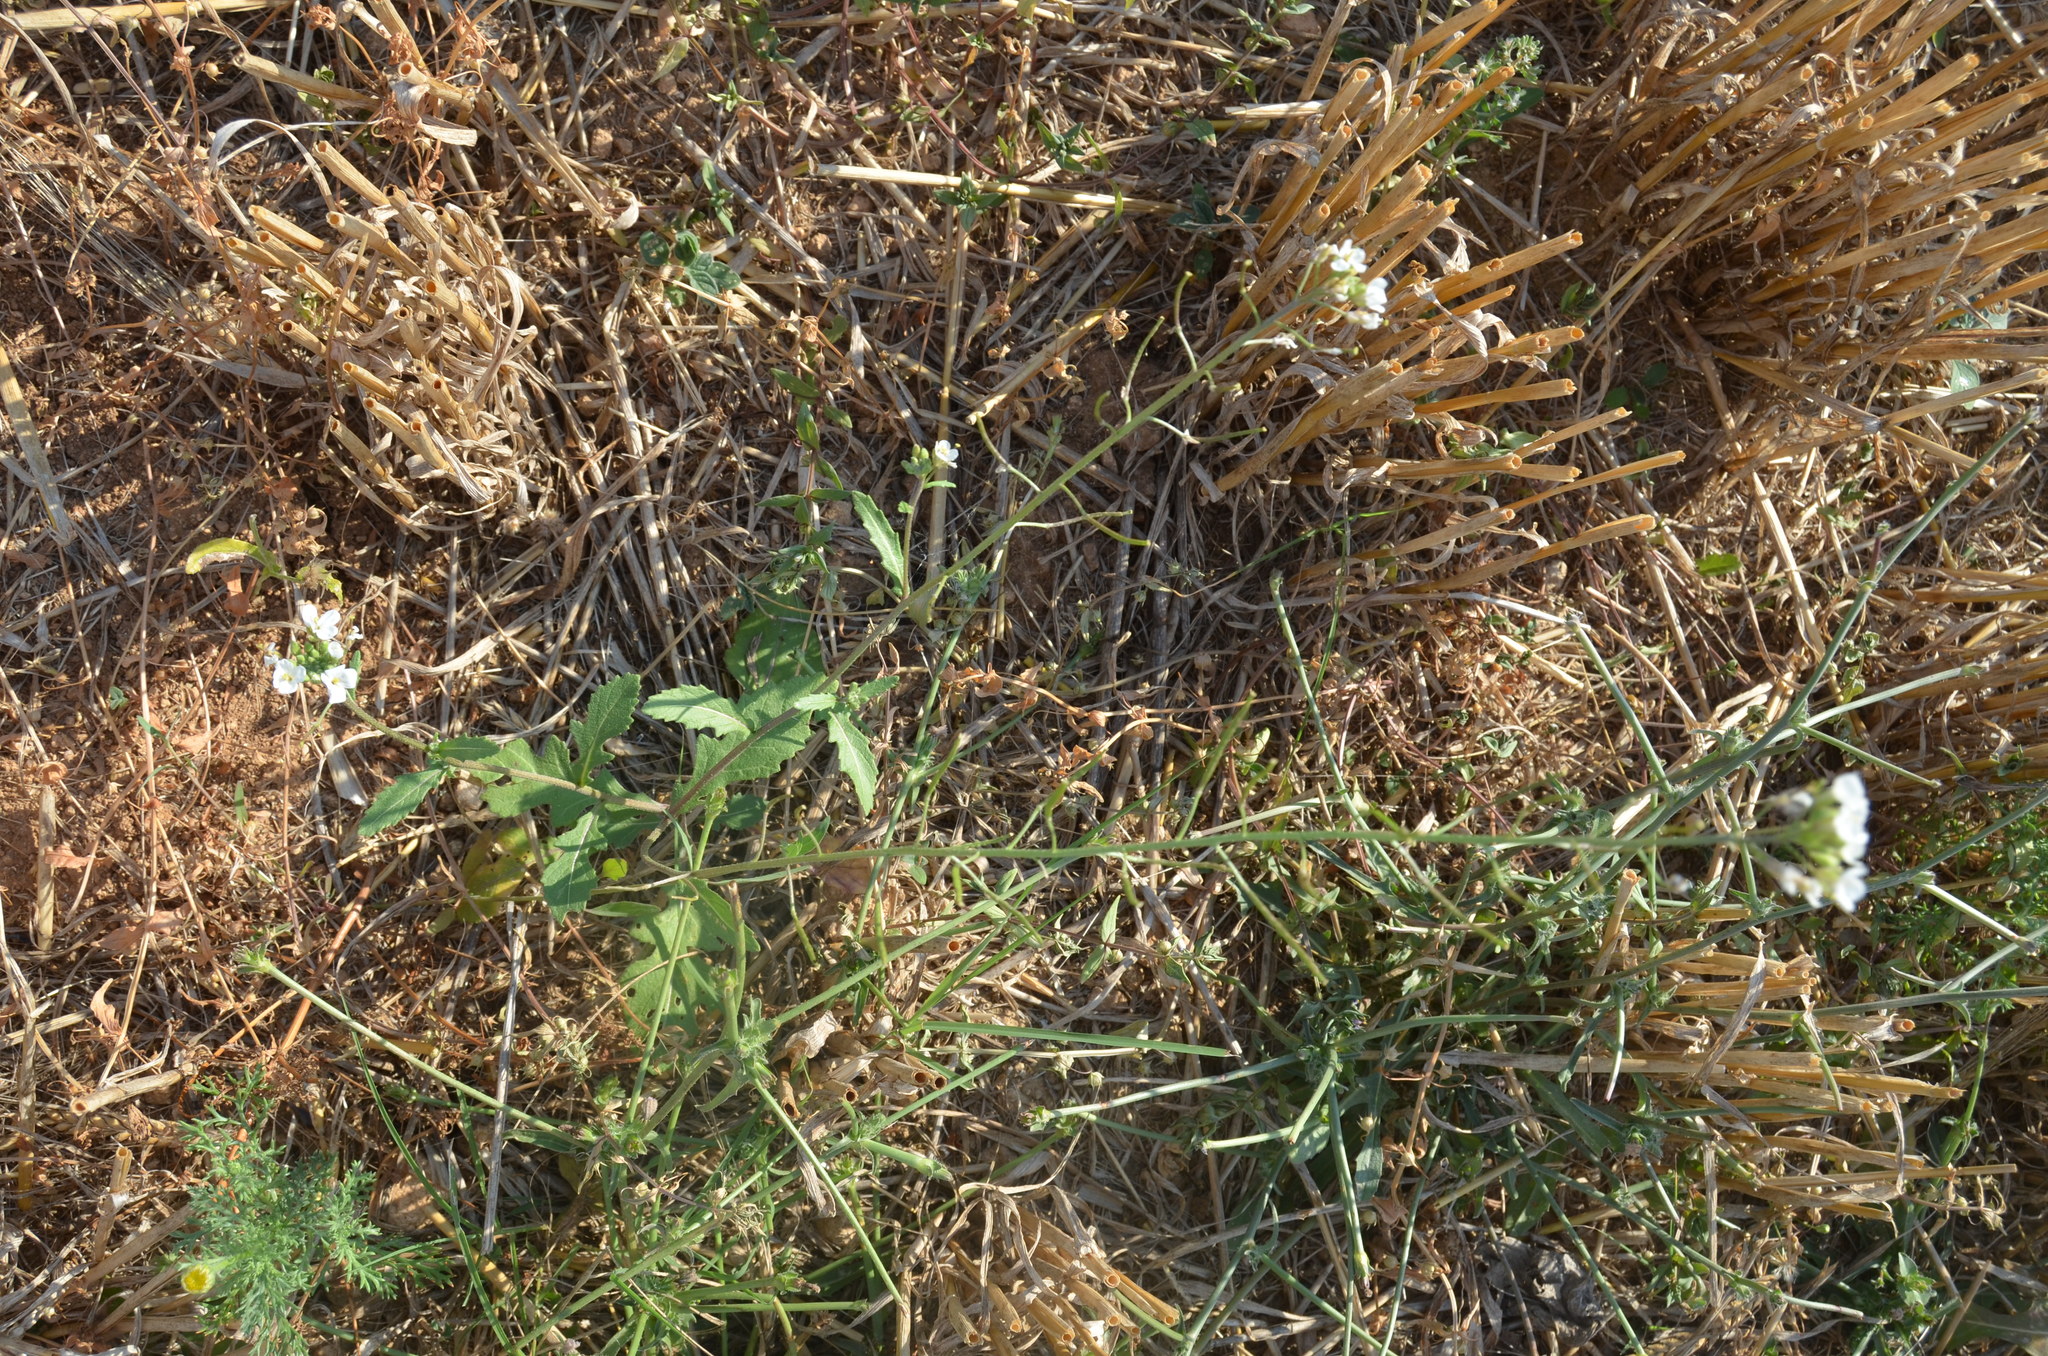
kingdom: Plantae
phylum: Tracheophyta
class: Magnoliopsida
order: Brassicales
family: Brassicaceae
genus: Diplotaxis
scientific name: Diplotaxis erucoides
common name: White rocket
